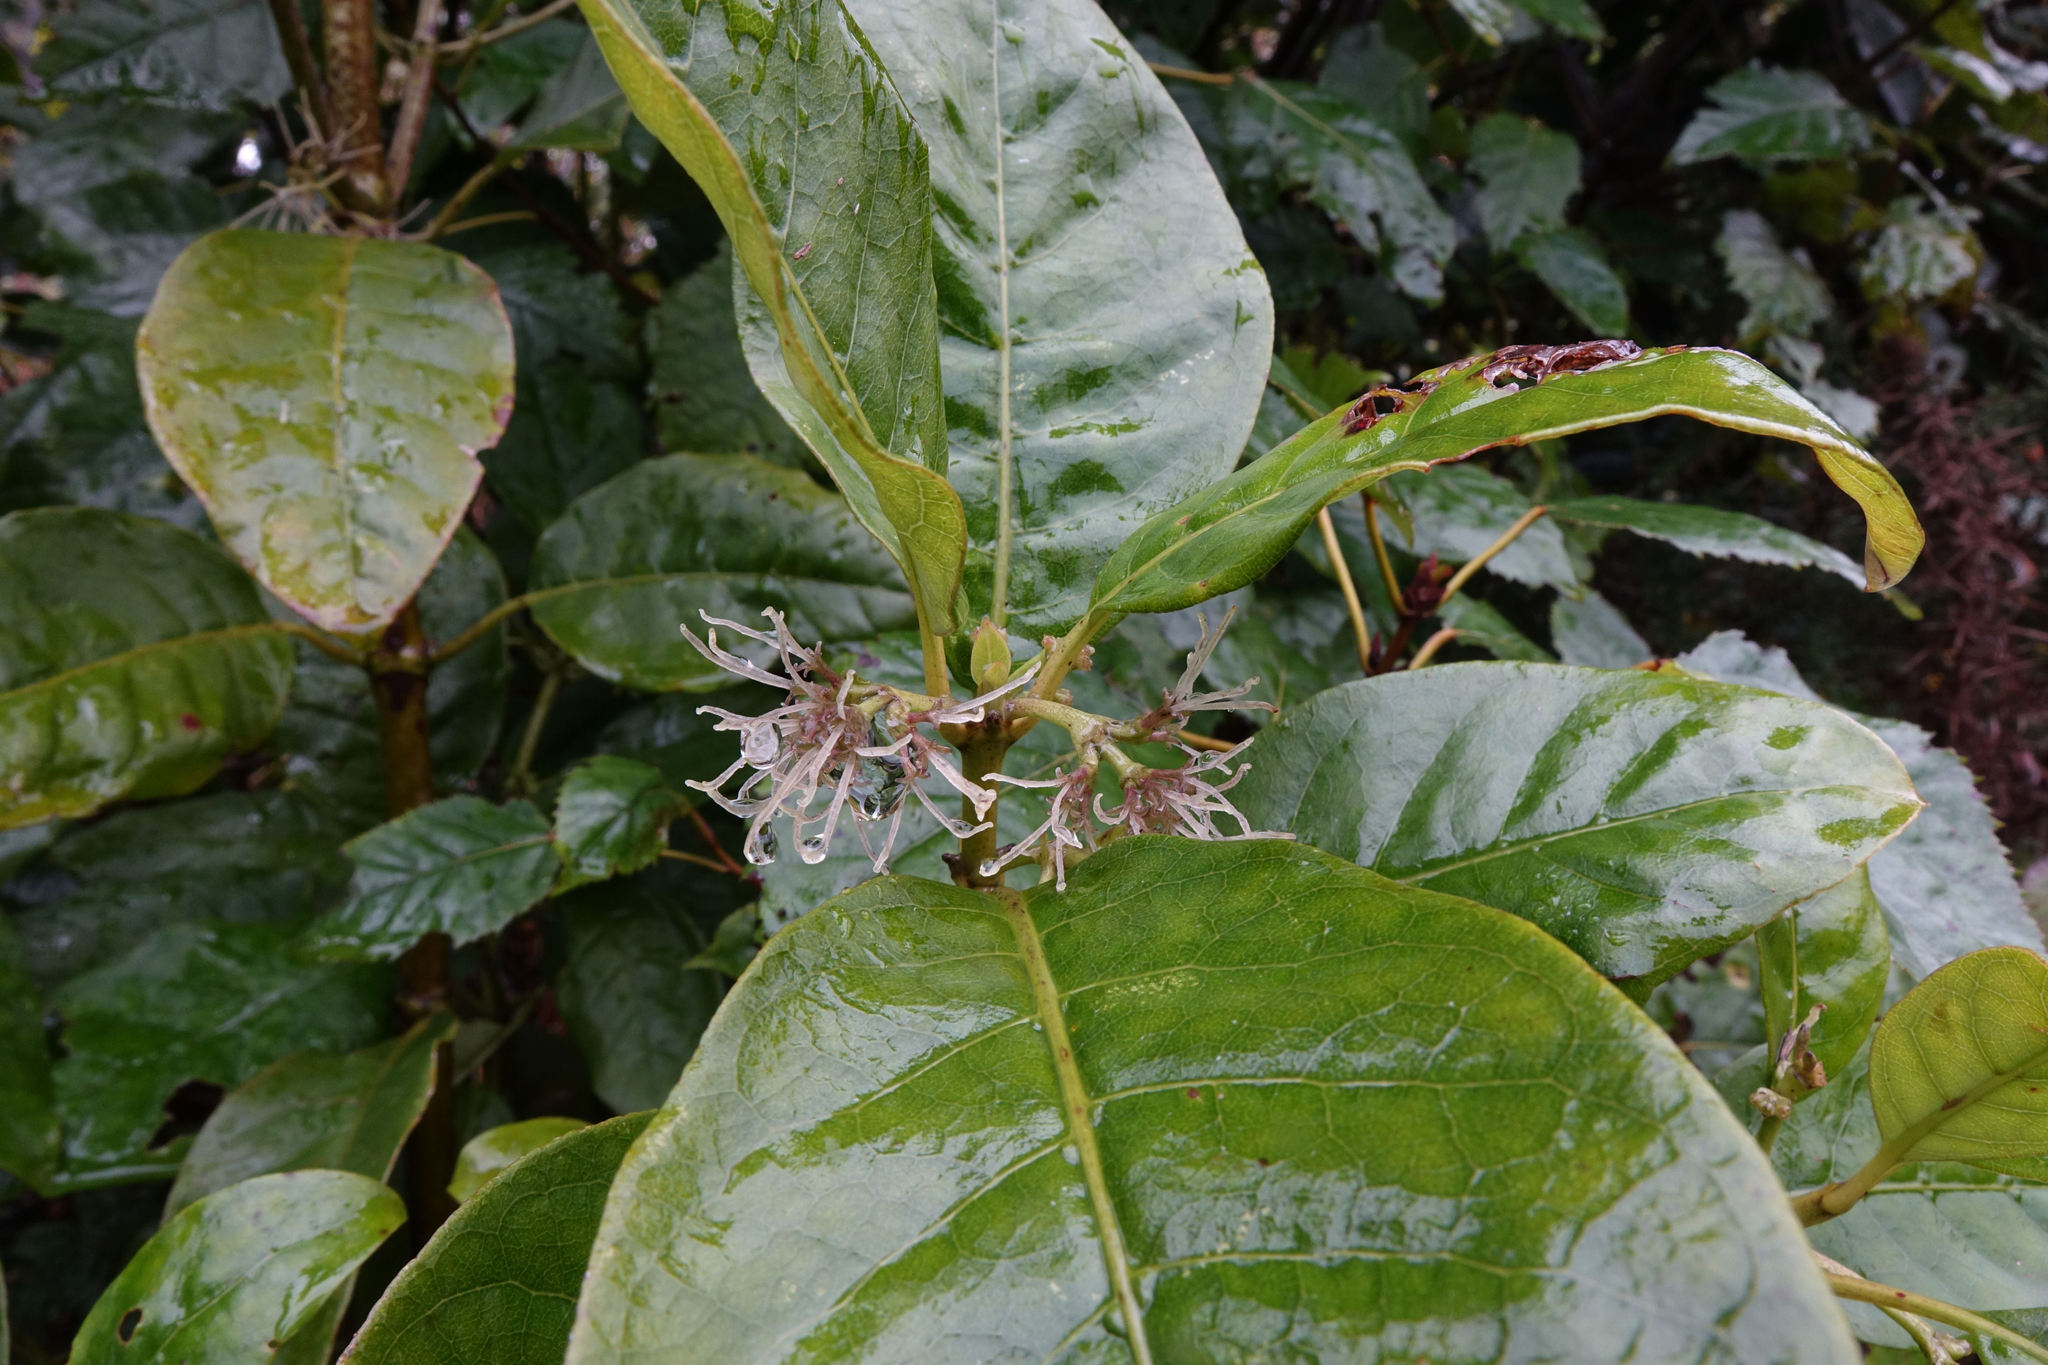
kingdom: Plantae
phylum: Tracheophyta
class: Magnoliopsida
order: Gentianales
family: Rubiaceae
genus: Coprosma
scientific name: Coprosma autumnalis
